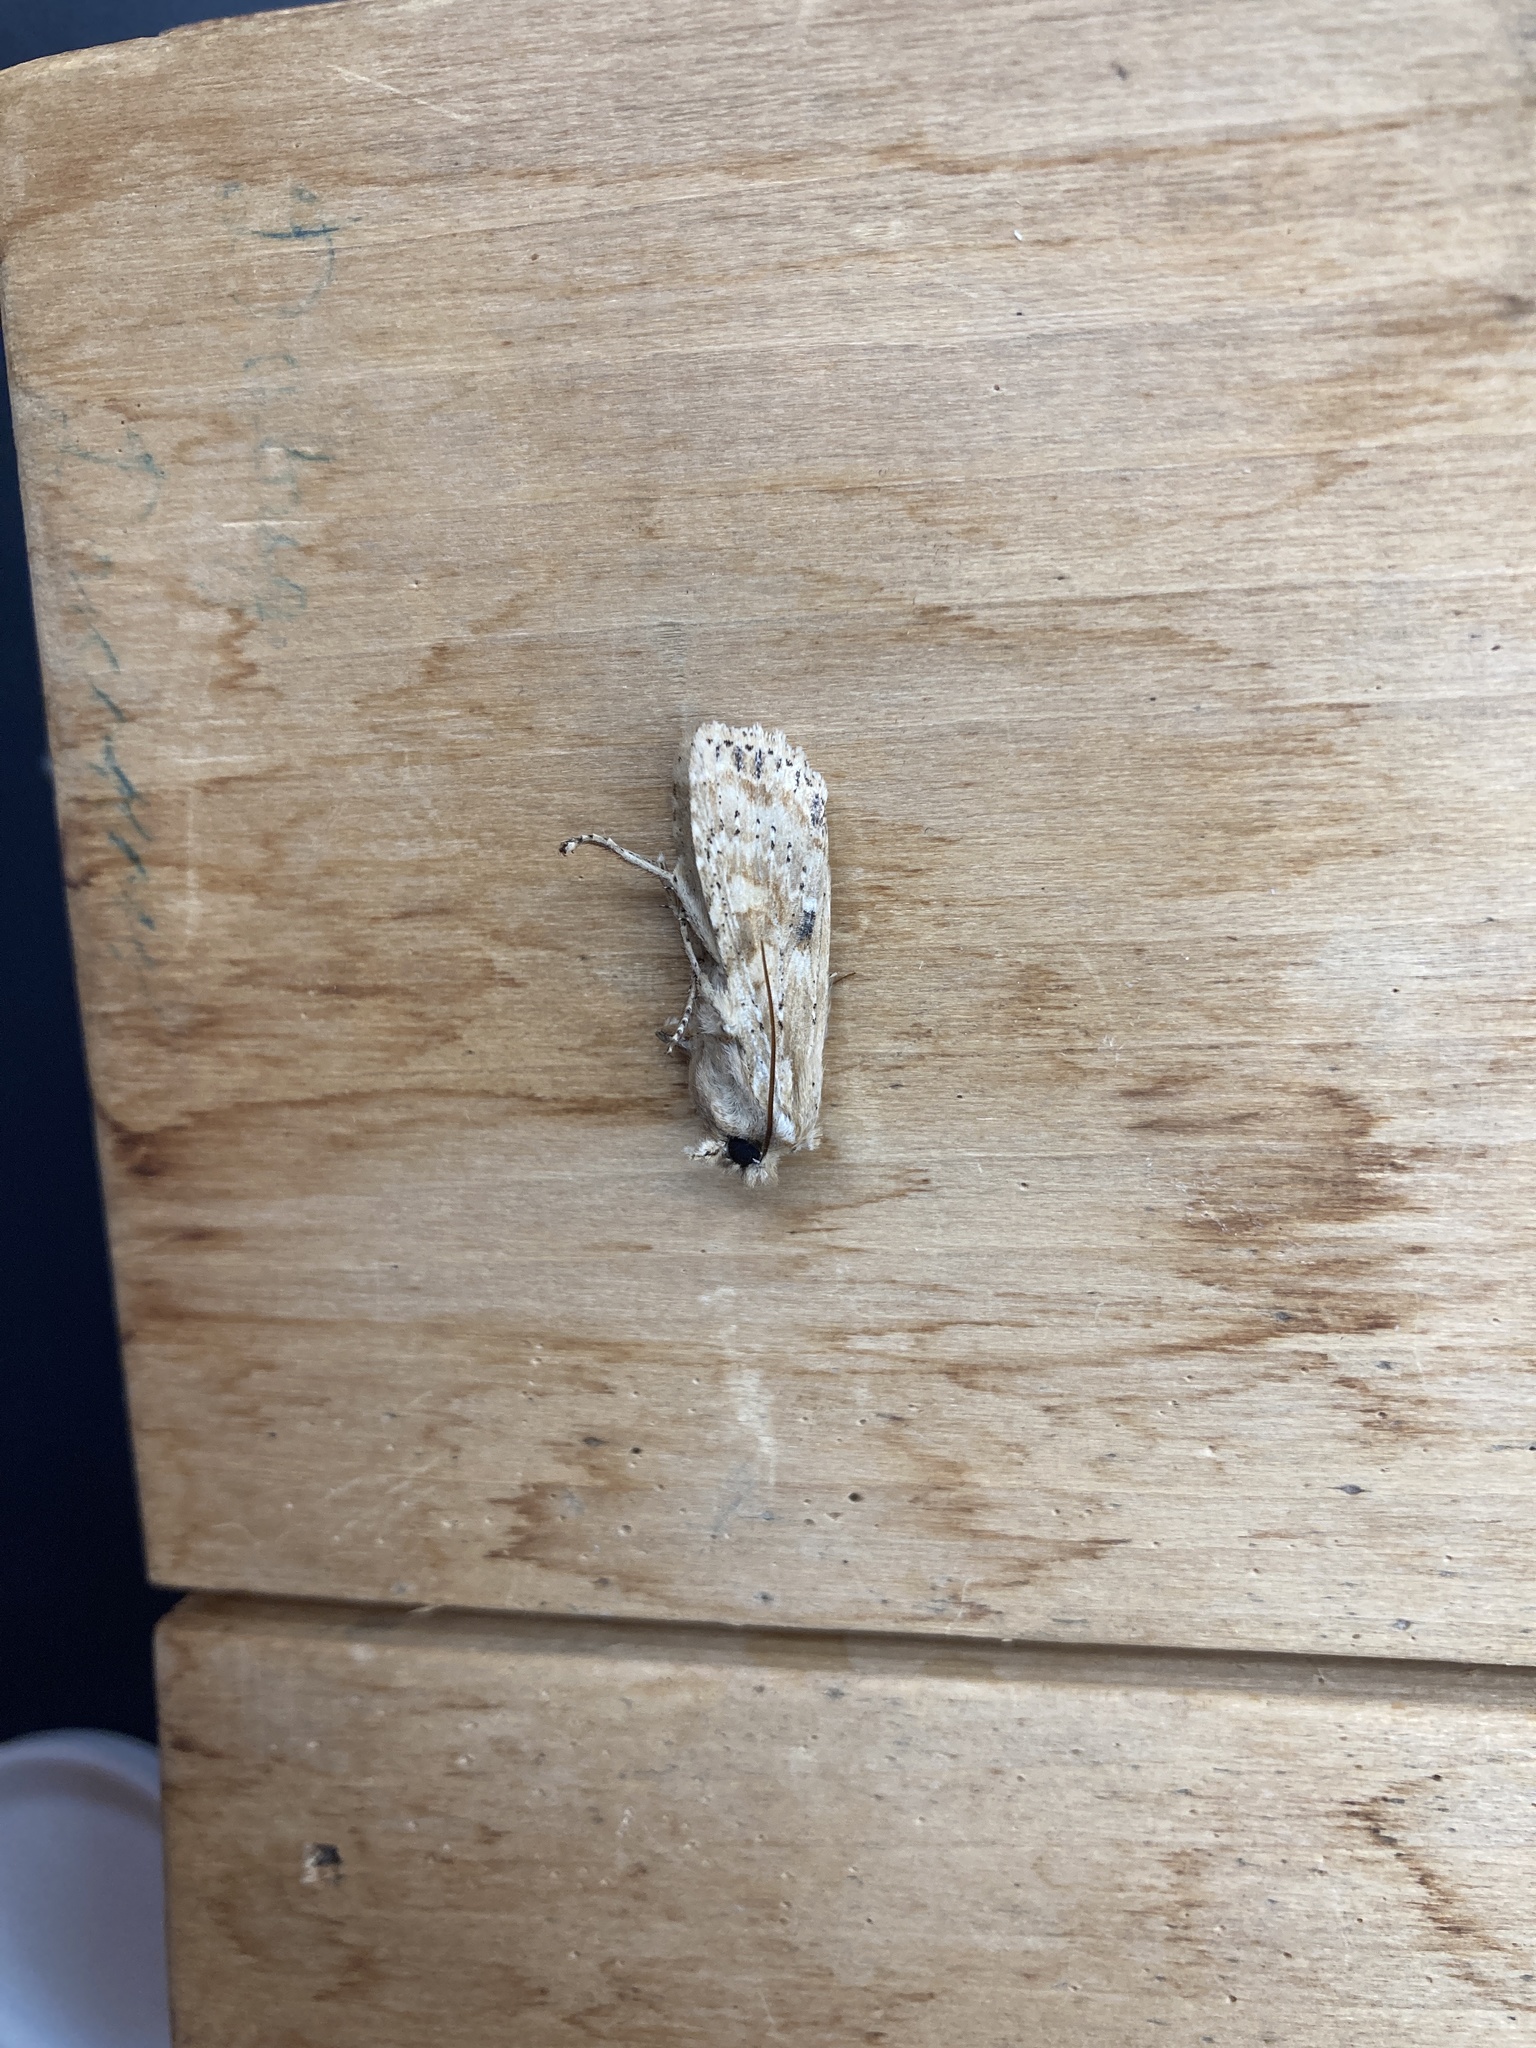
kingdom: Animalia
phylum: Arthropoda
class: Insecta
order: Lepidoptera
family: Noctuidae
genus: Lithophane
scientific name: Lithophane innominata
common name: Nameless pinion moth
